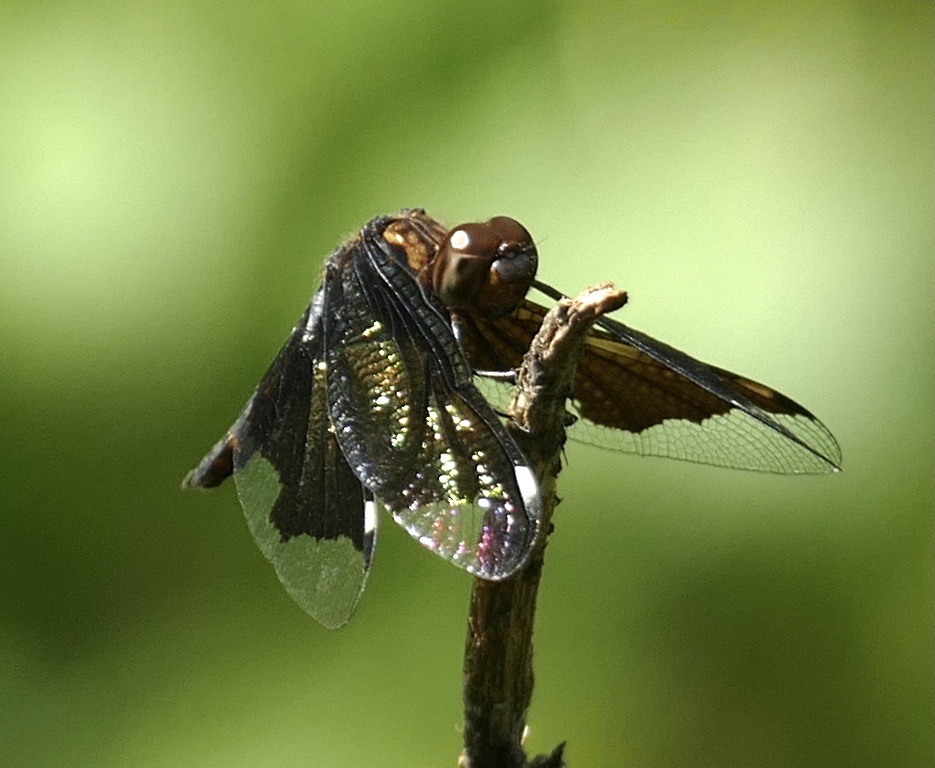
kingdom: Animalia
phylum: Arthropoda
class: Insecta
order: Odonata
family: Libellulidae
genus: Palpopleura
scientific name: Palpopleura lucia
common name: Lucia widow
